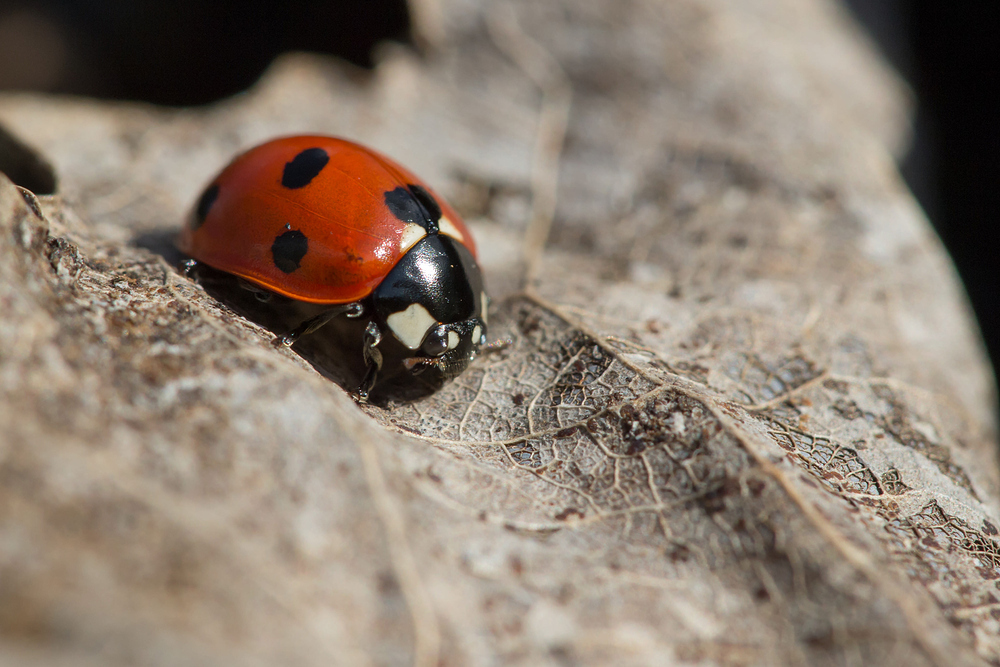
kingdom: Animalia
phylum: Arthropoda
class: Insecta
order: Coleoptera
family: Coccinellidae
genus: Coccinella
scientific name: Coccinella septempunctata
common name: Sevenspotted lady beetle
